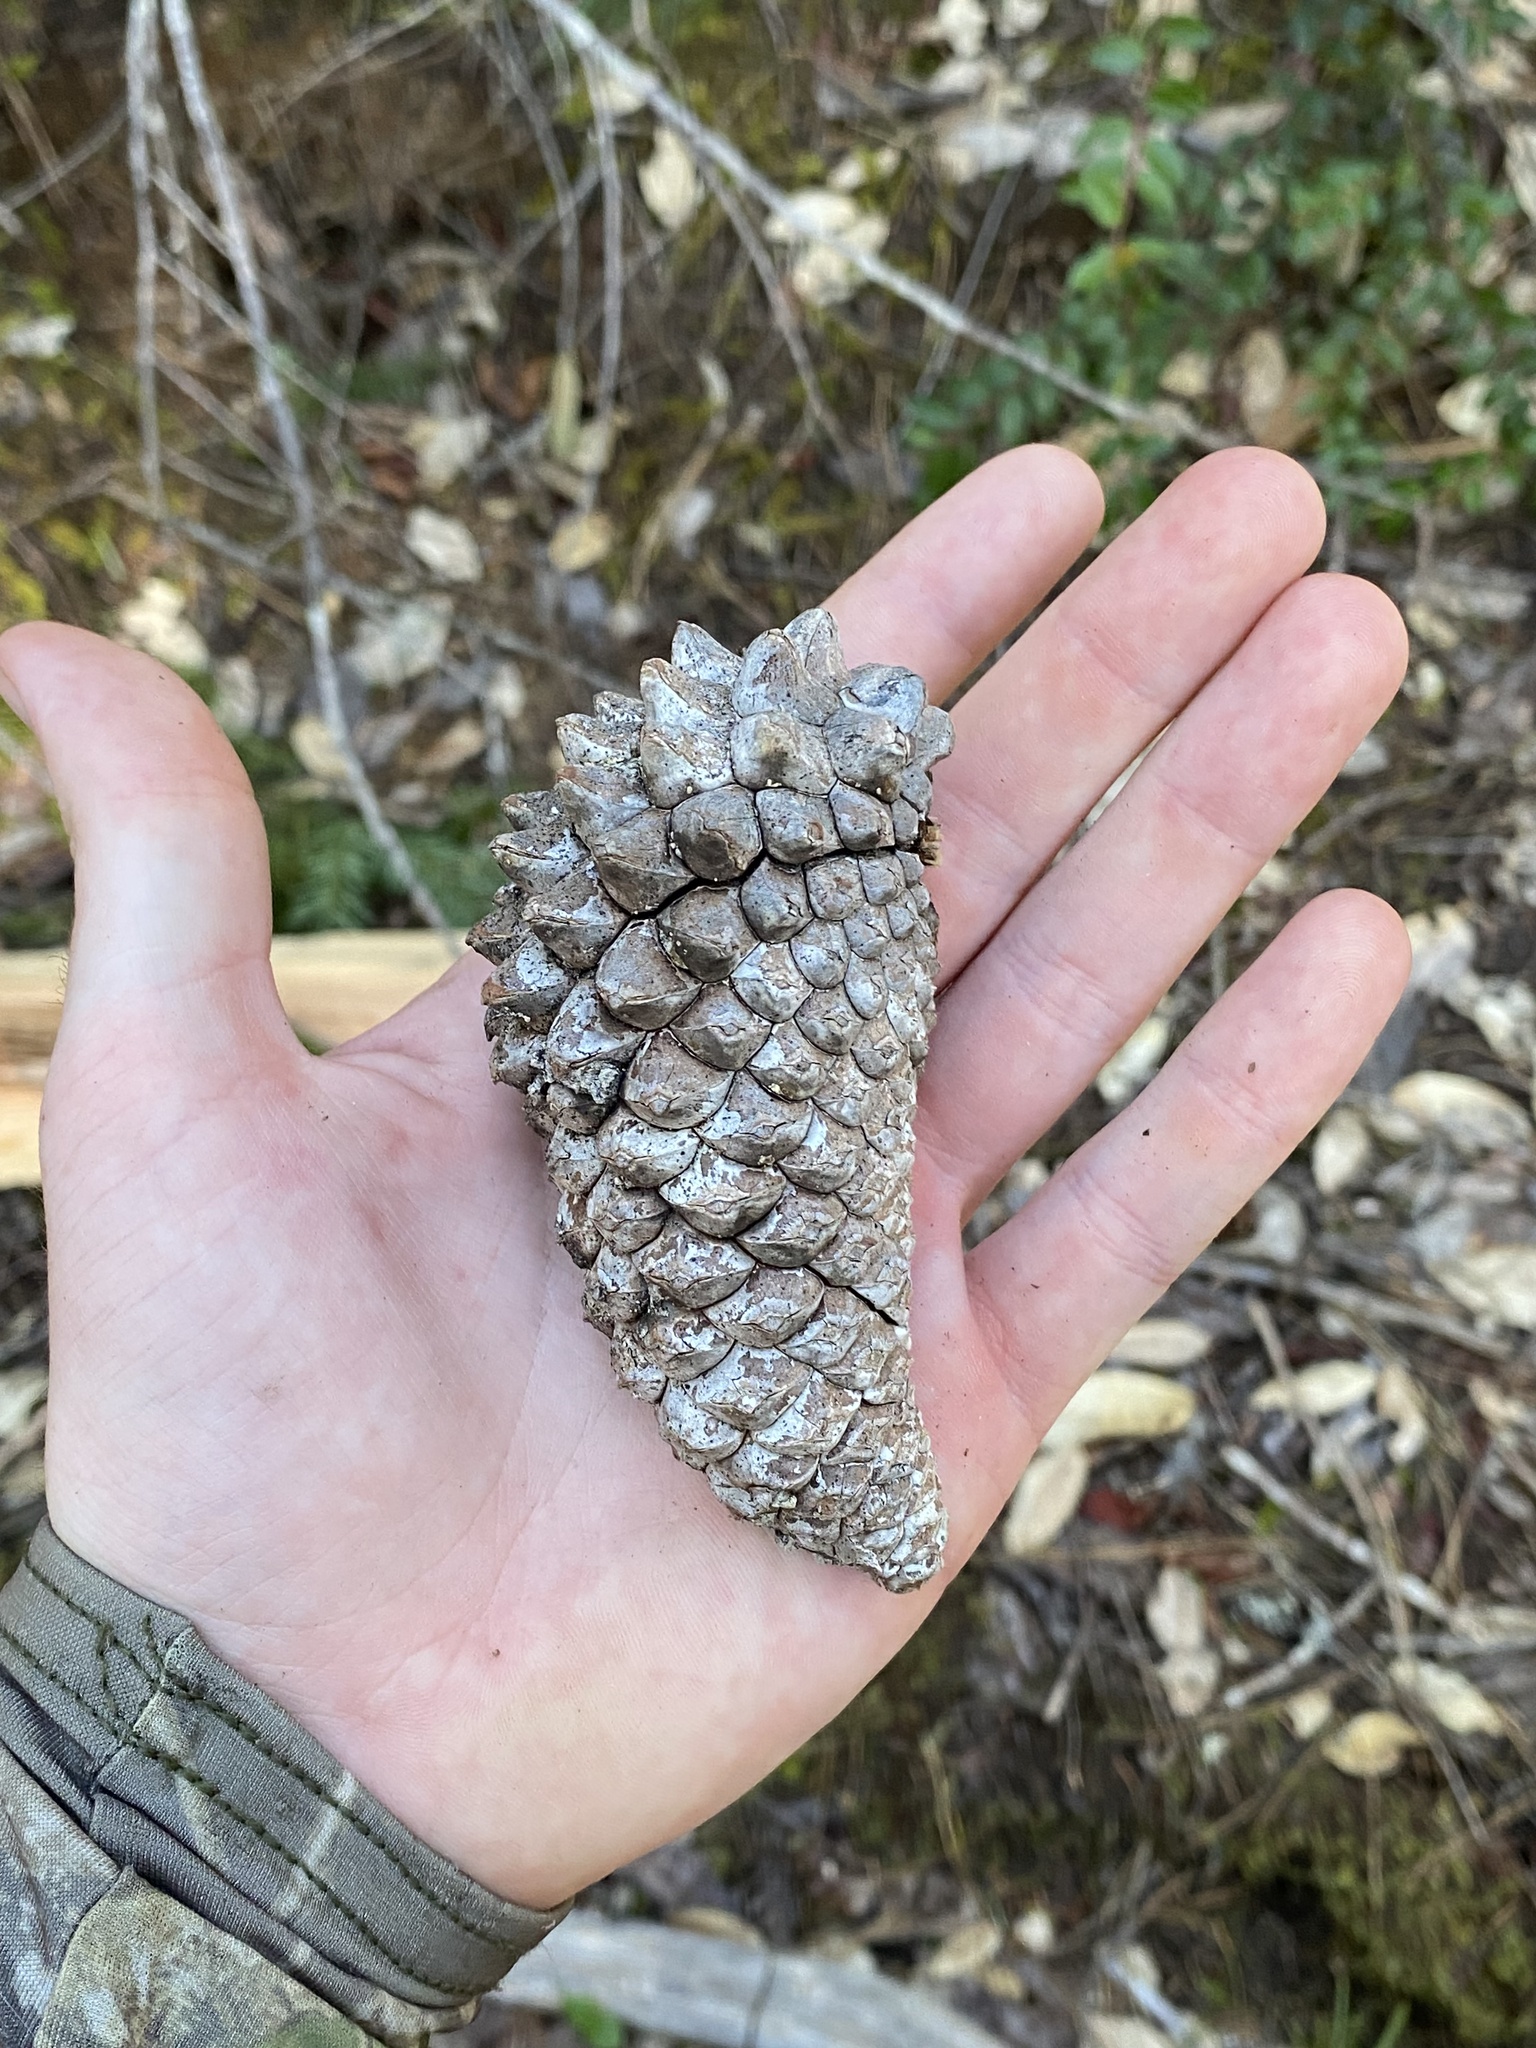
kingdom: Plantae
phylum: Tracheophyta
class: Pinopsida
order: Pinales
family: Pinaceae
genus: Pinus
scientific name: Pinus attenuata
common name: Knobcone pine
